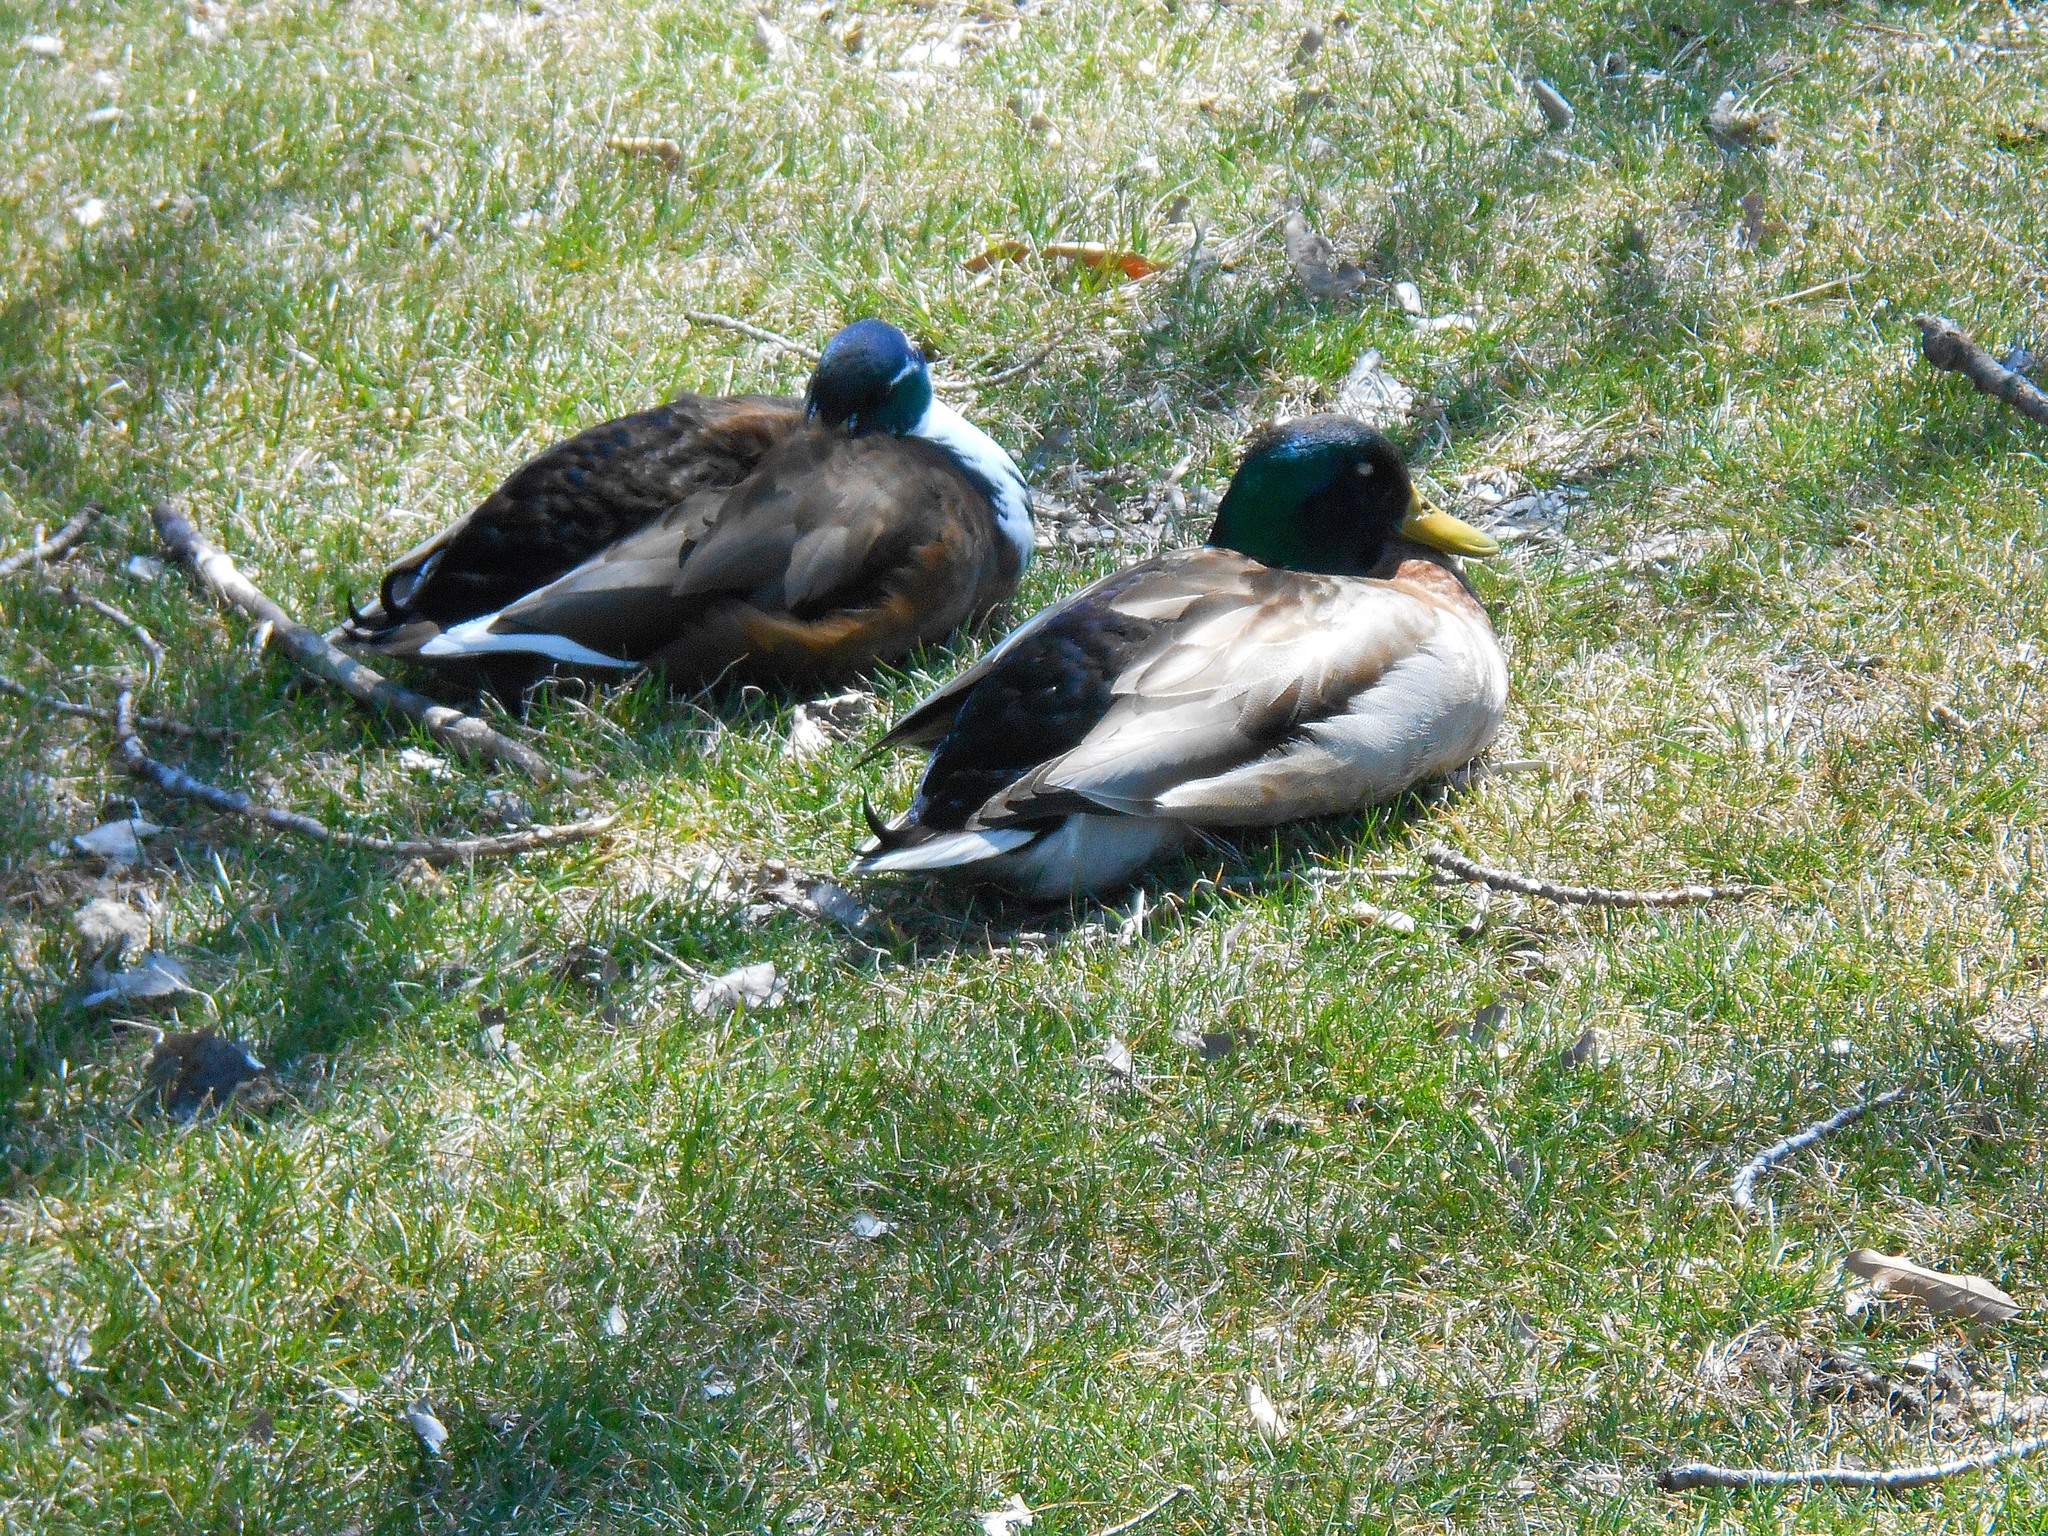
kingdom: Animalia
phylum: Chordata
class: Aves
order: Anseriformes
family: Anatidae
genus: Anas
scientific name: Anas platyrhynchos
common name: Mallard
